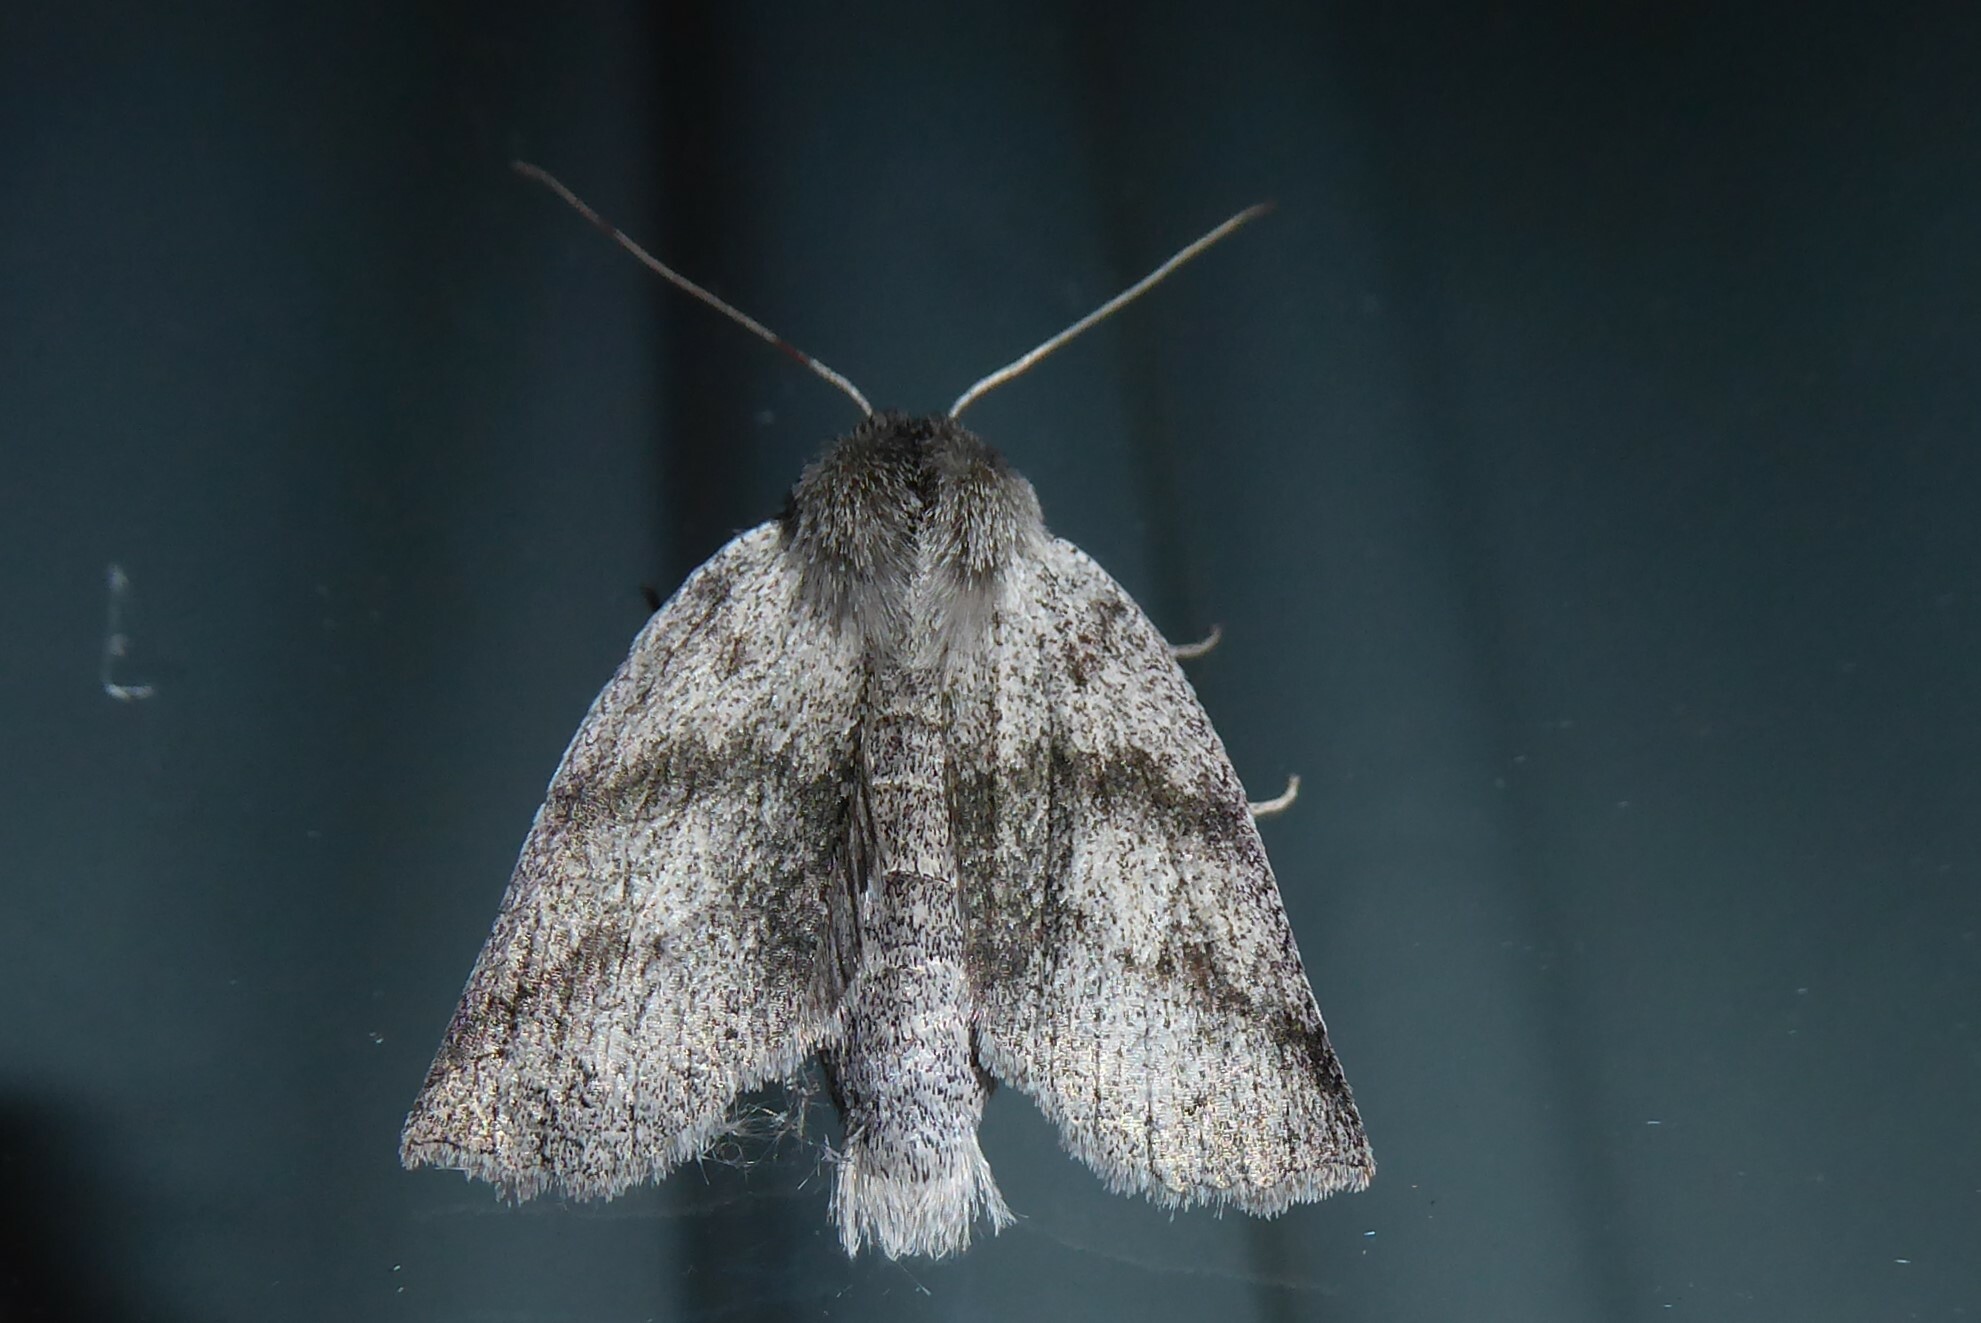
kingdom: Animalia
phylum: Arthropoda
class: Insecta
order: Lepidoptera
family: Geometridae
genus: Declana
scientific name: Declana leptomera
